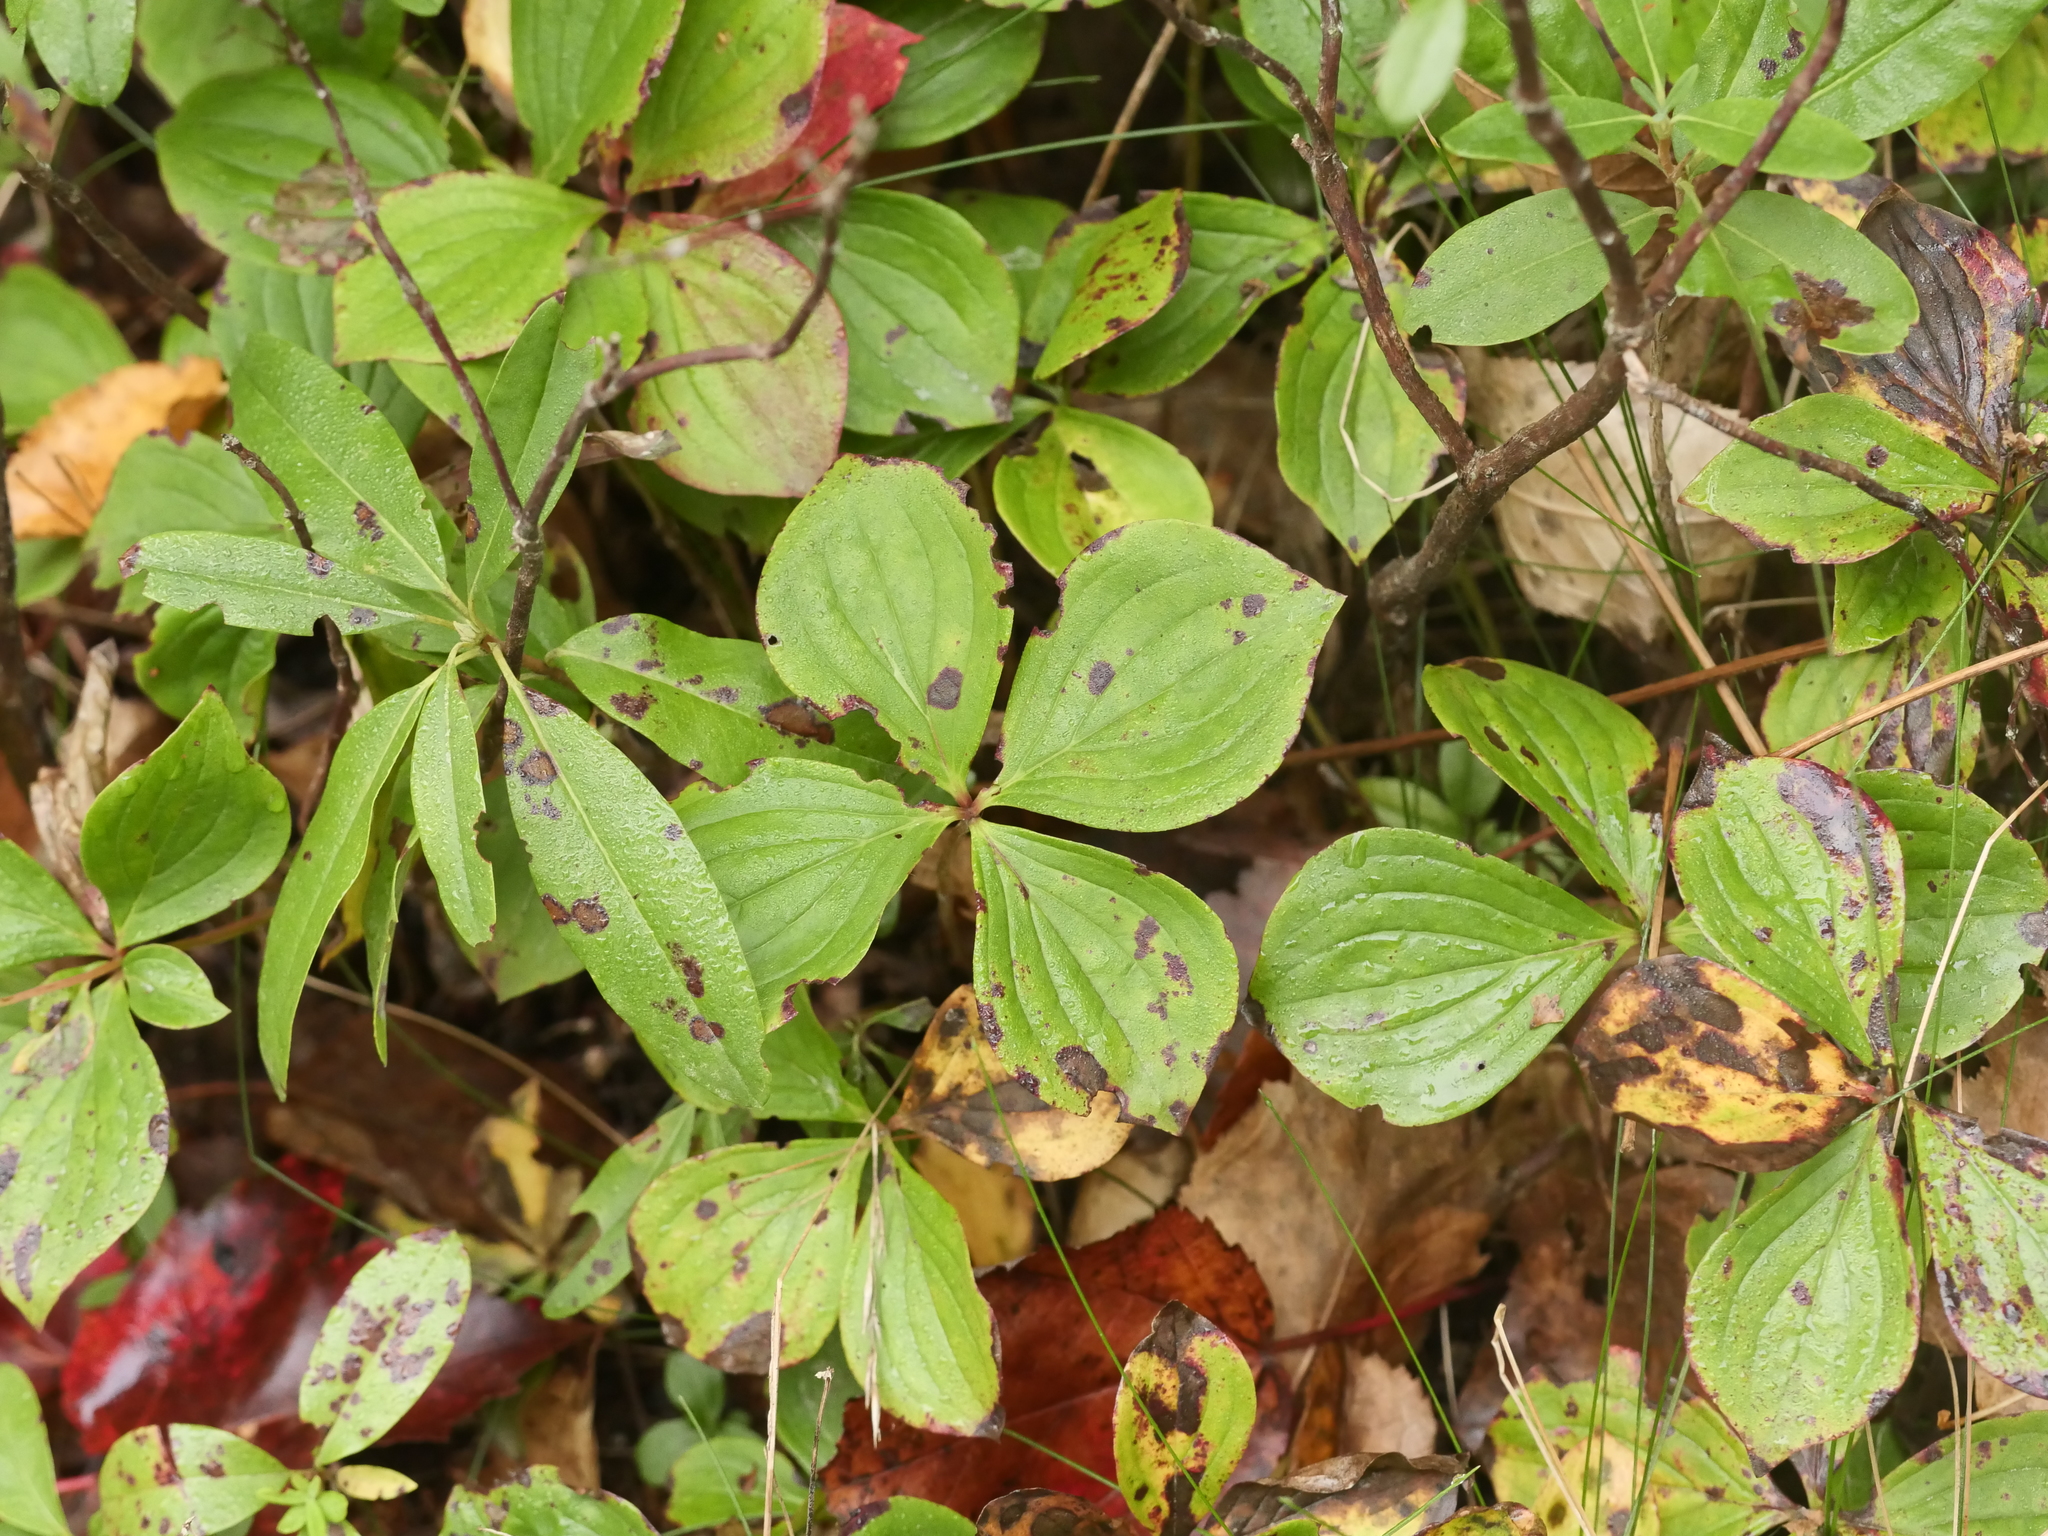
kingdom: Plantae
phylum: Tracheophyta
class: Magnoliopsida
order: Cornales
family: Cornaceae
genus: Cornus
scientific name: Cornus canadensis
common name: Creeping dogwood
